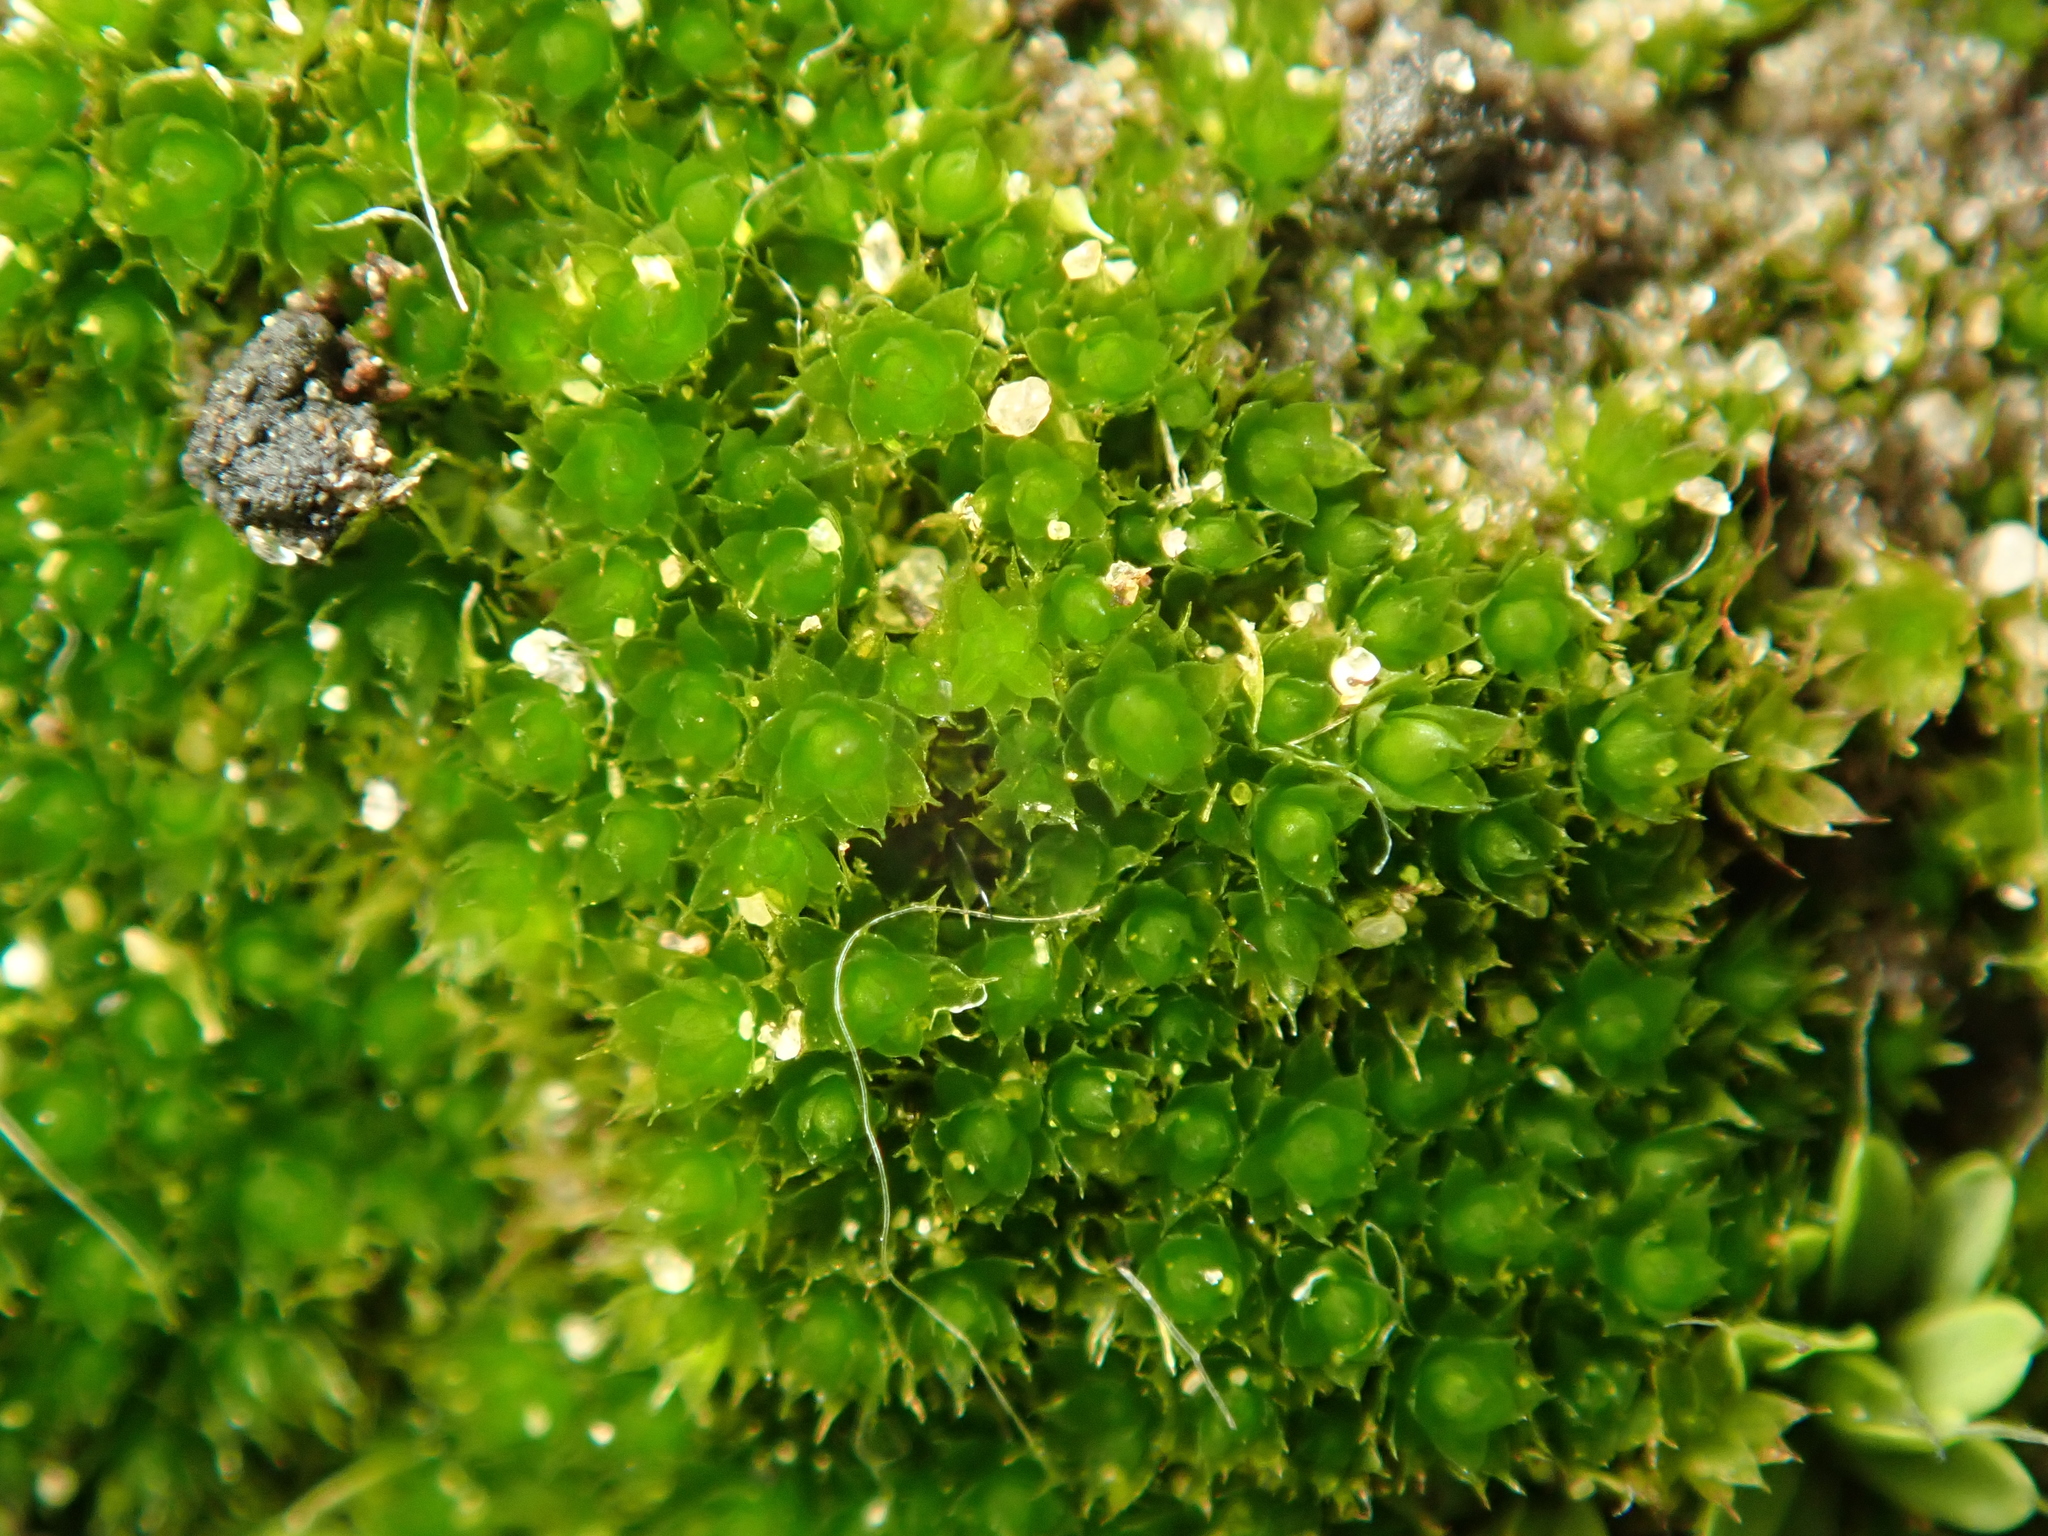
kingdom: Plantae
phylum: Bryophyta
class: Bryopsida
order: Bryales
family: Bryaceae
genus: Rosulabryum
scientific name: Rosulabryum capillare
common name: Capillary thread-moss
